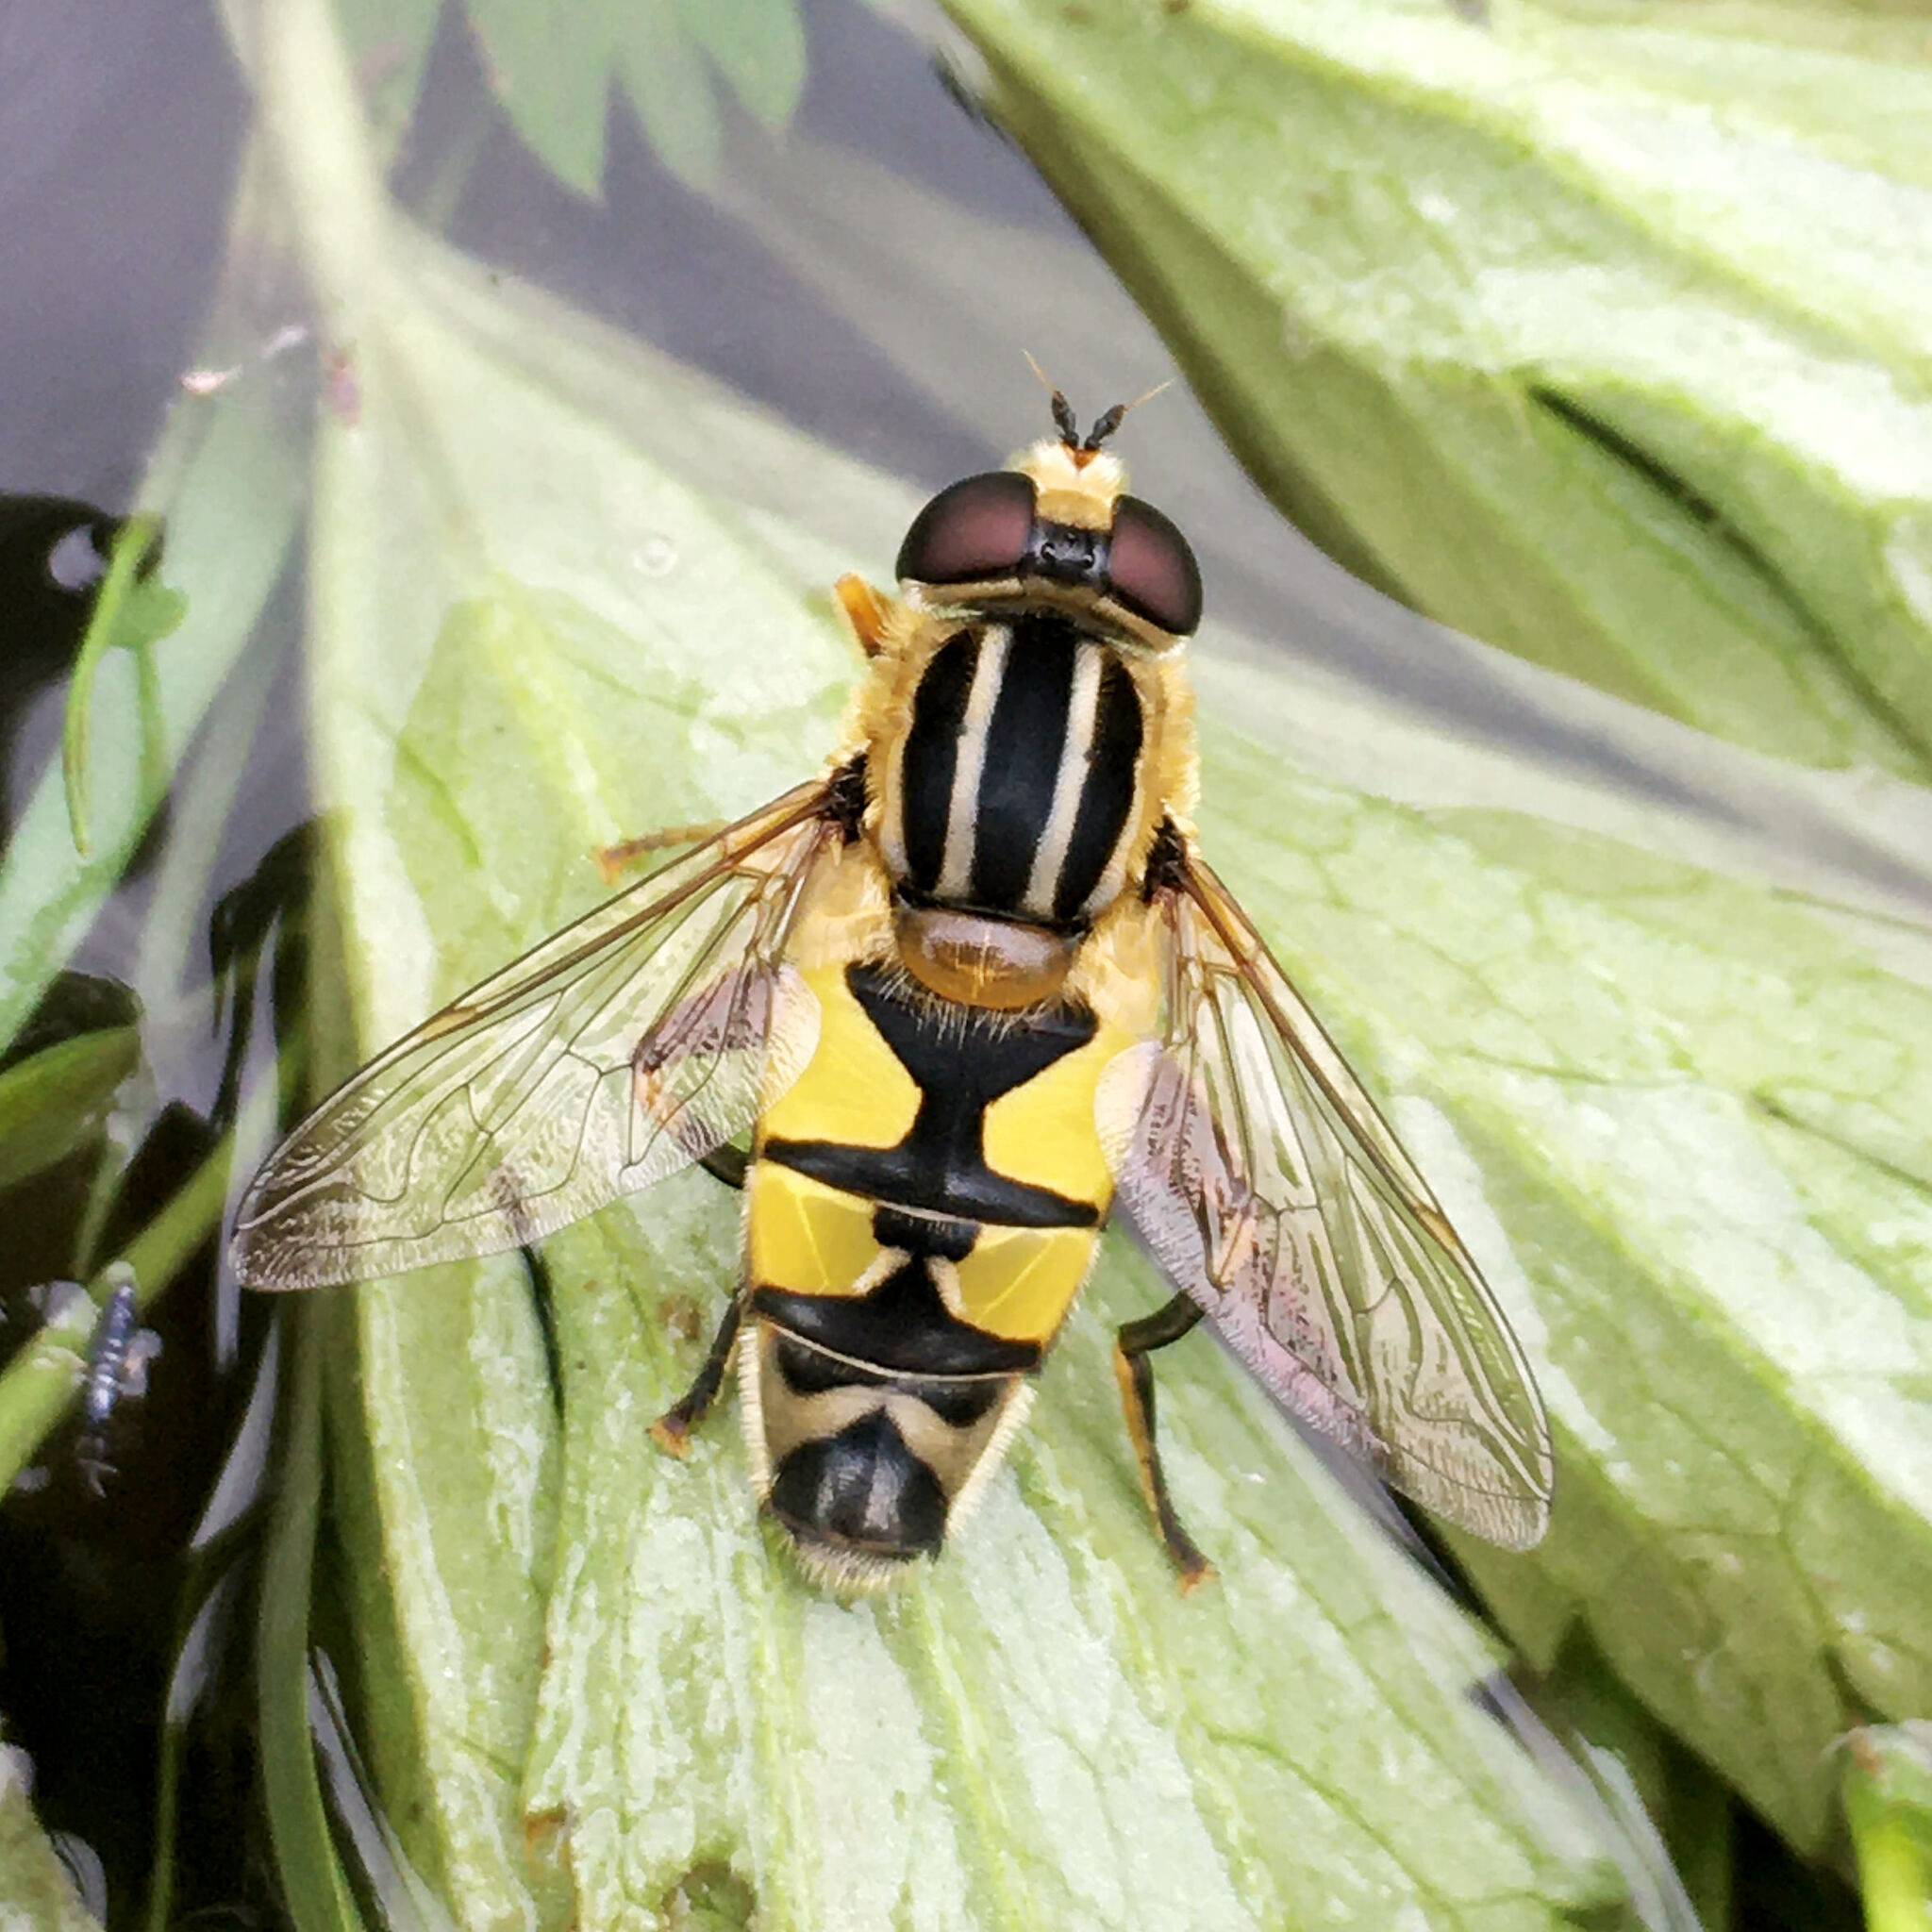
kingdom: Animalia
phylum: Arthropoda
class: Insecta
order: Diptera
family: Syrphidae
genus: Helophilus
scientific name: Helophilus trivittatus
